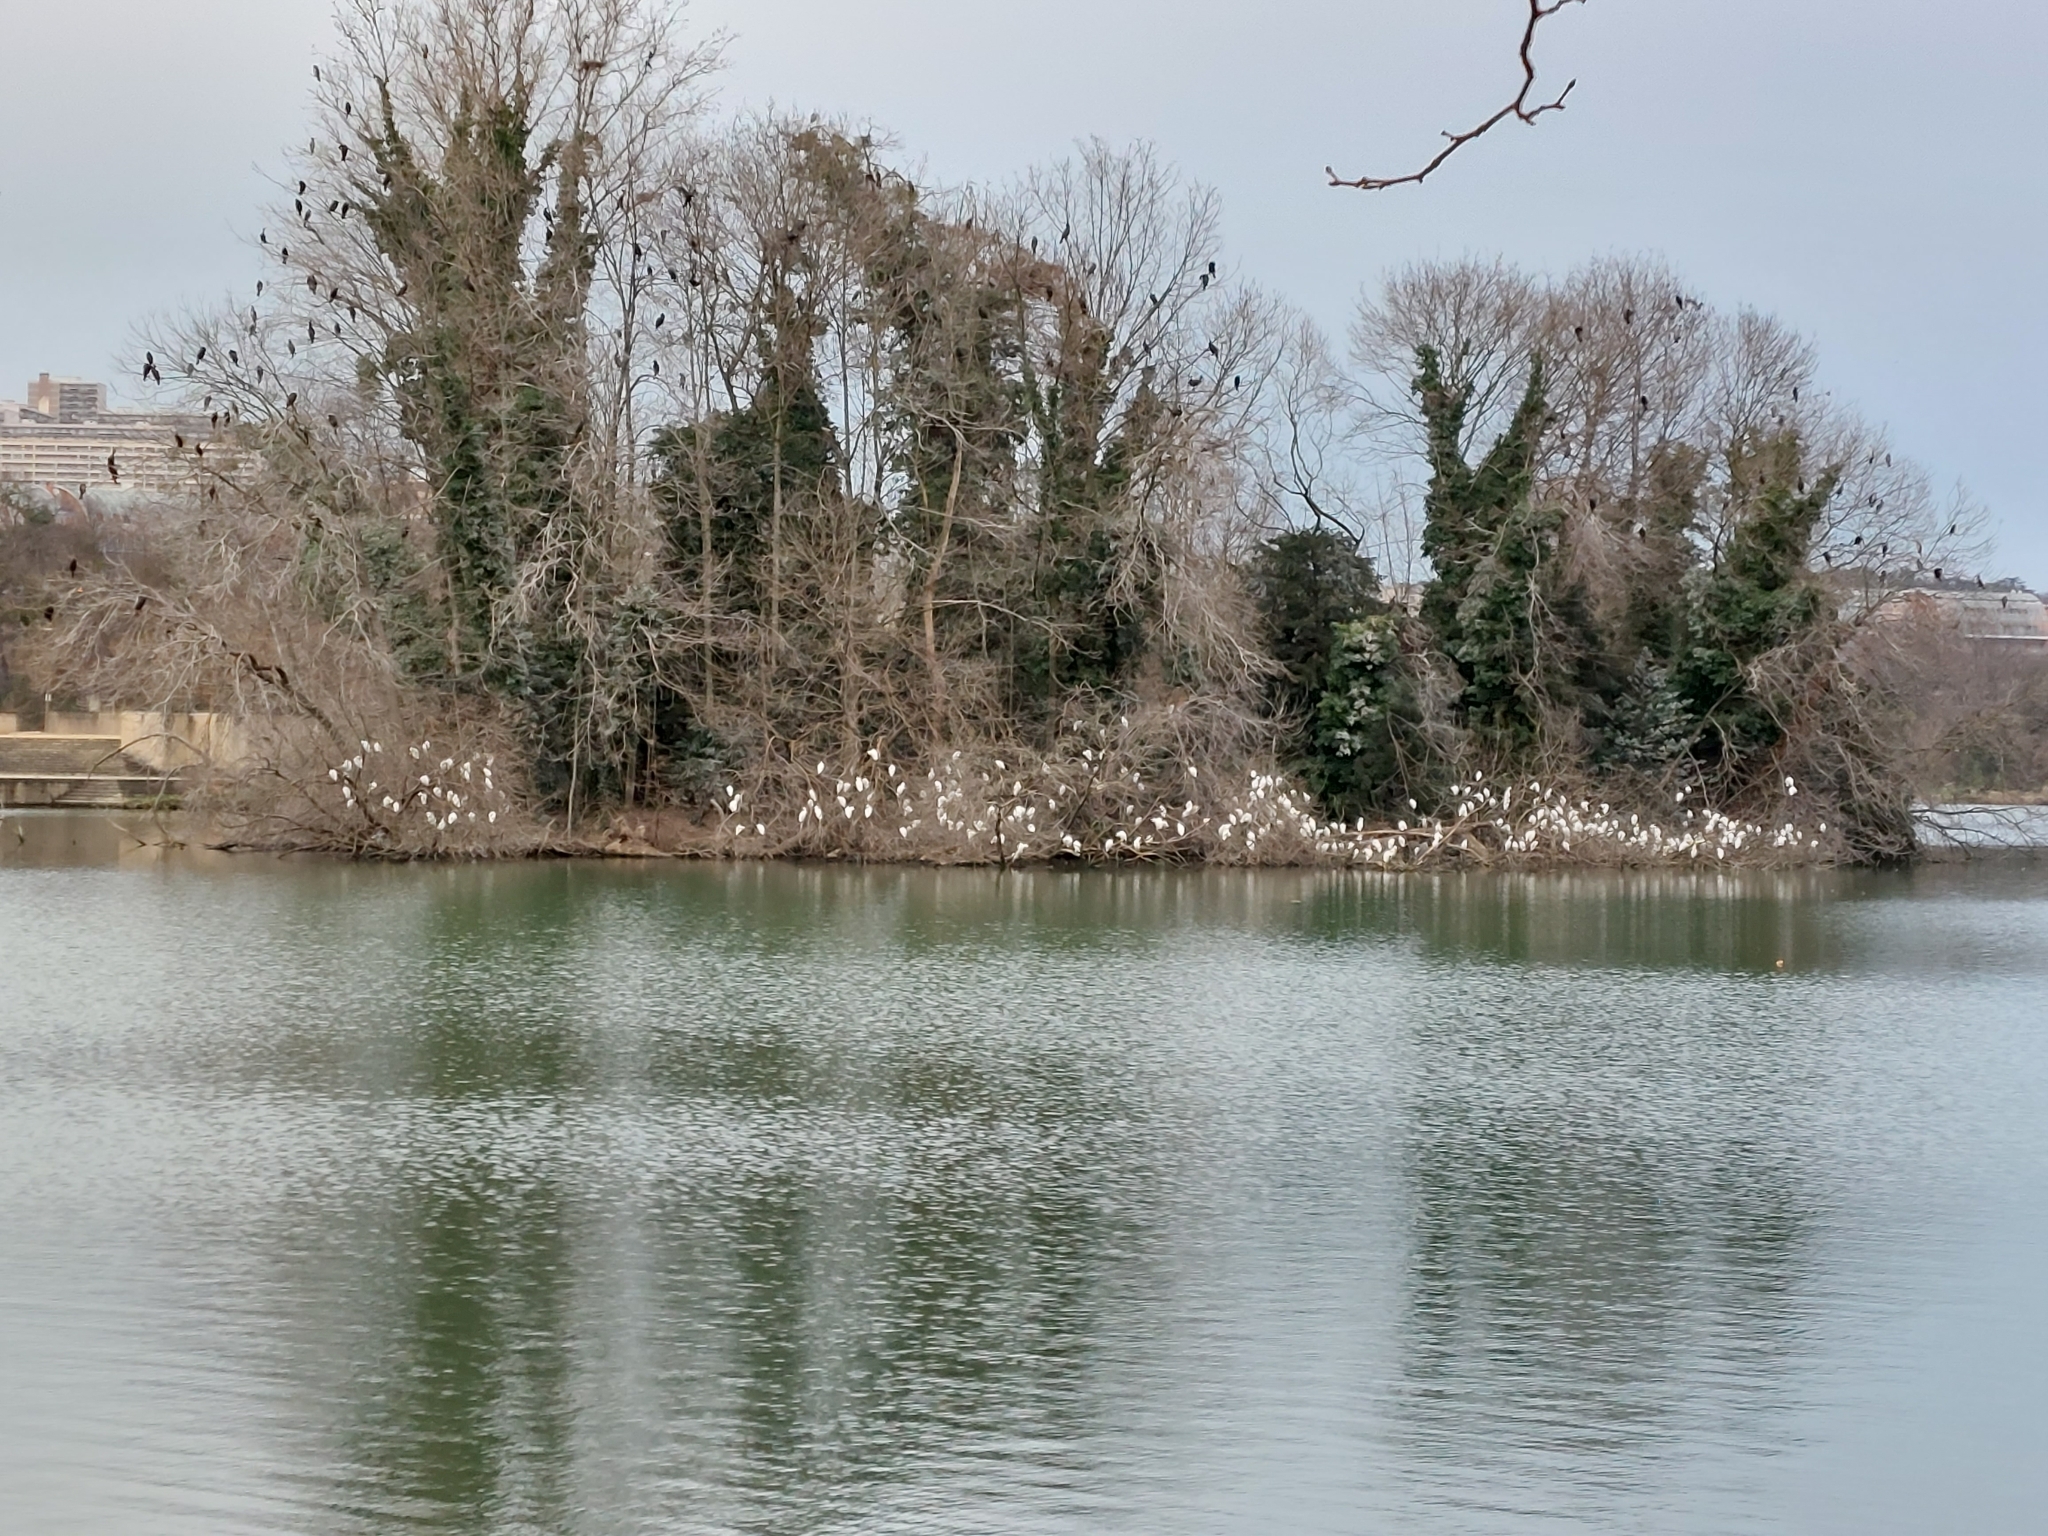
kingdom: Animalia
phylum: Chordata
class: Aves
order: Pelecaniformes
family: Ardeidae
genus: Bubulcus
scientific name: Bubulcus ibis
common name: Cattle egret
